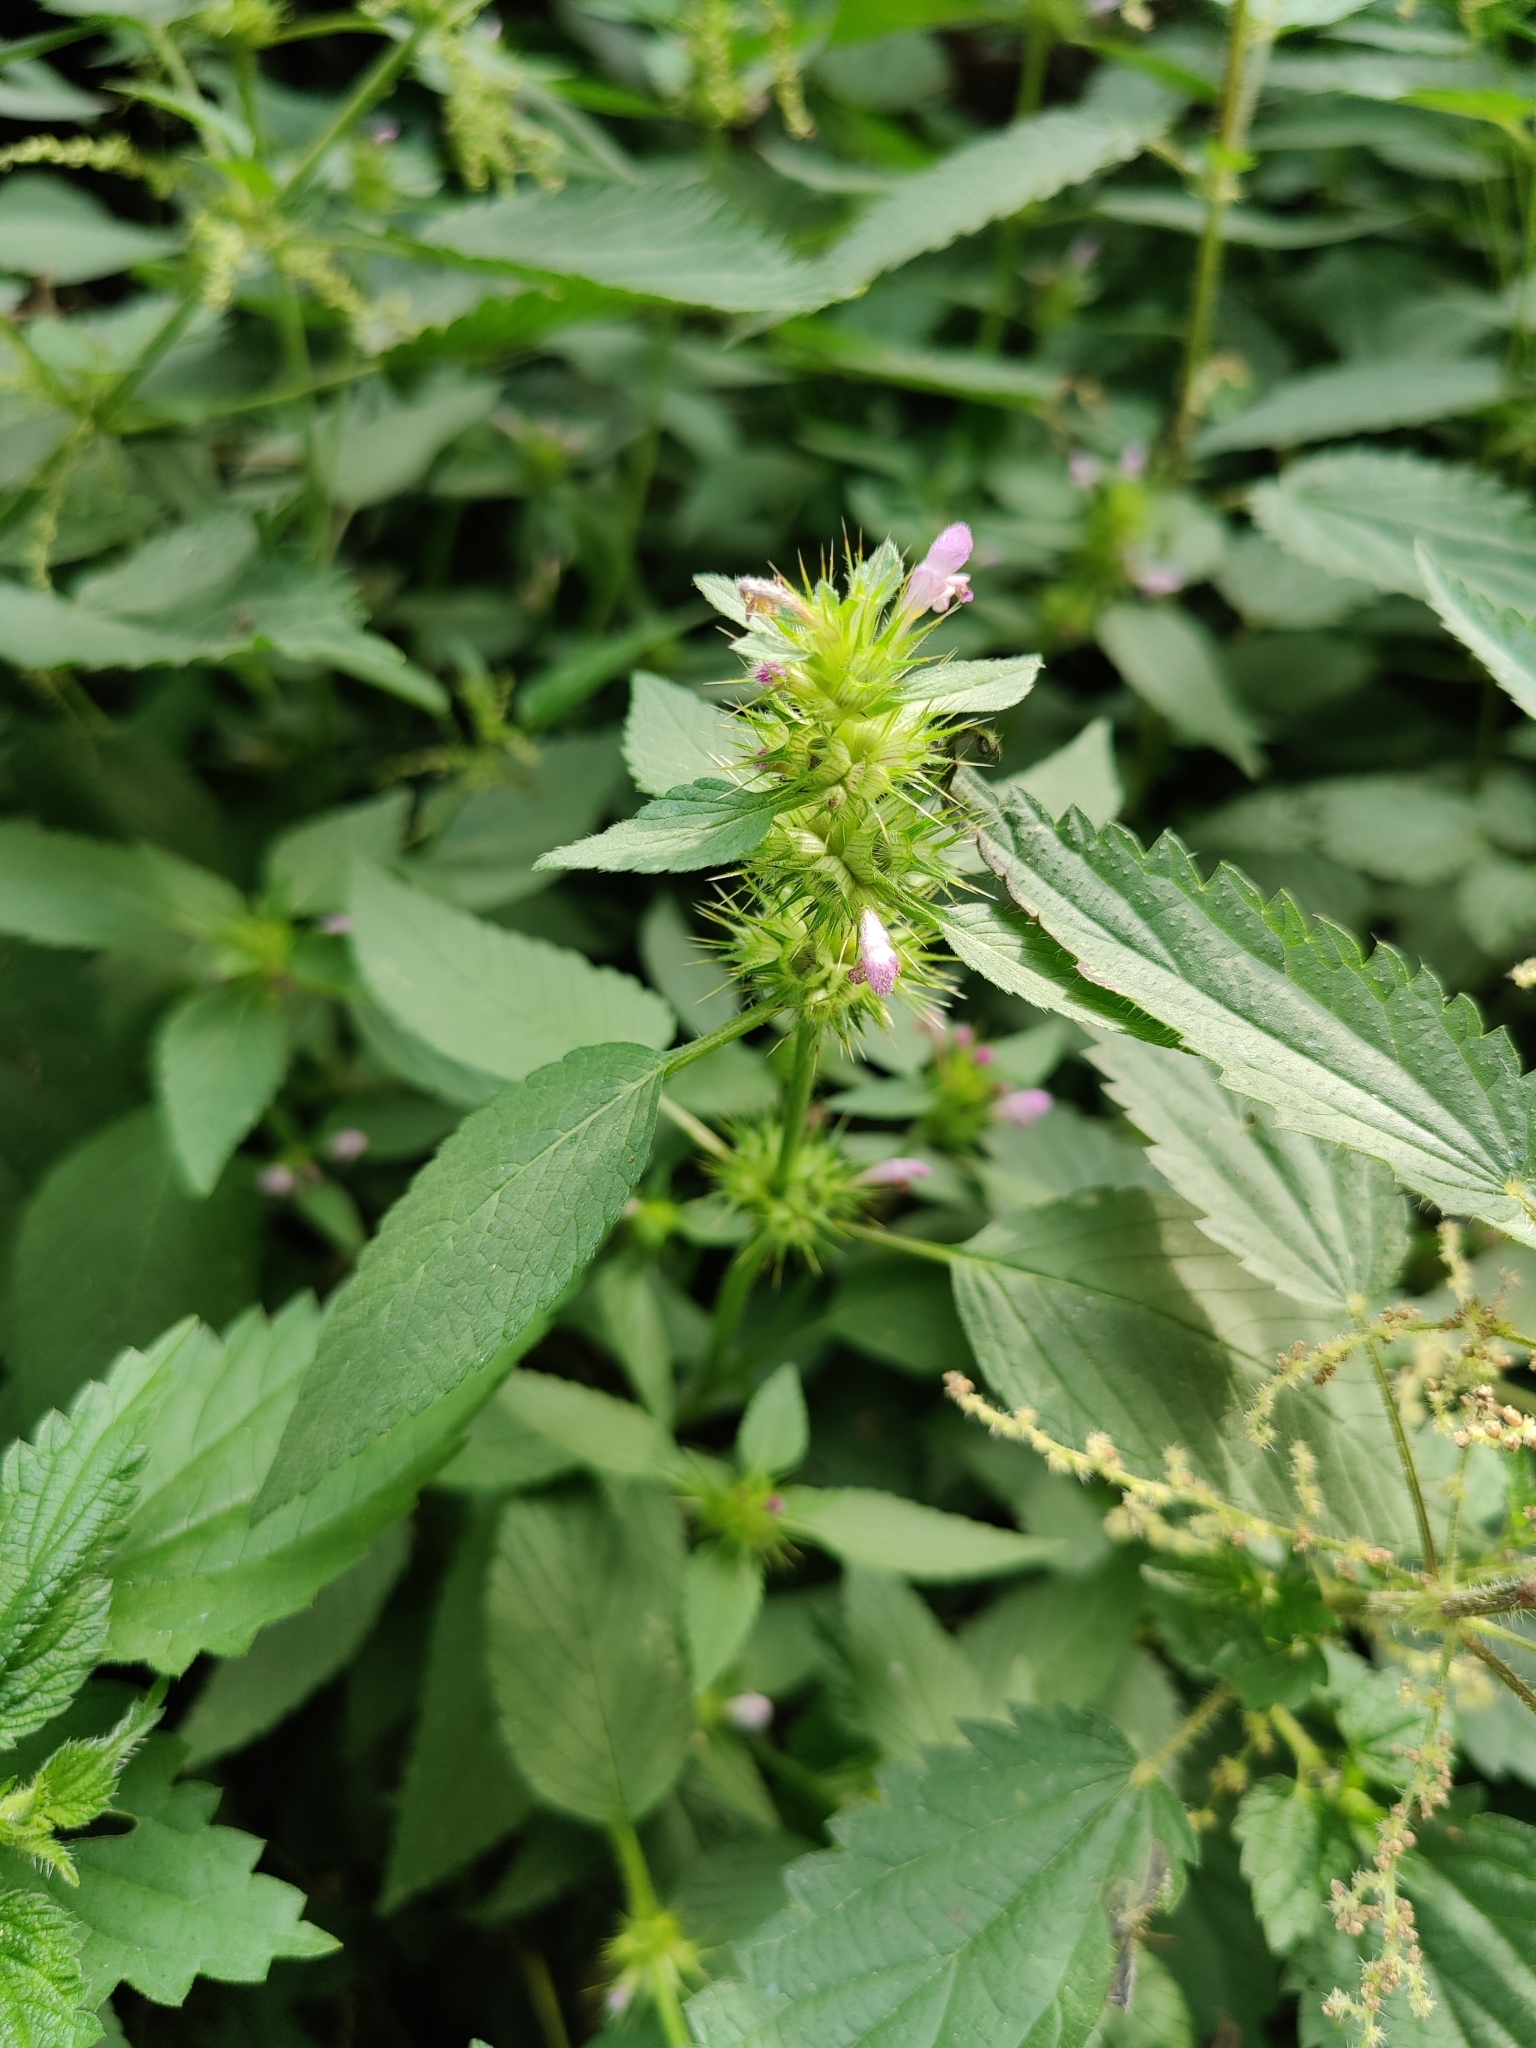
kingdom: Plantae
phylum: Tracheophyta
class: Magnoliopsida
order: Lamiales
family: Lamiaceae
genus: Galeopsis
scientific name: Galeopsis tetrahit
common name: Common hemp-nettle
